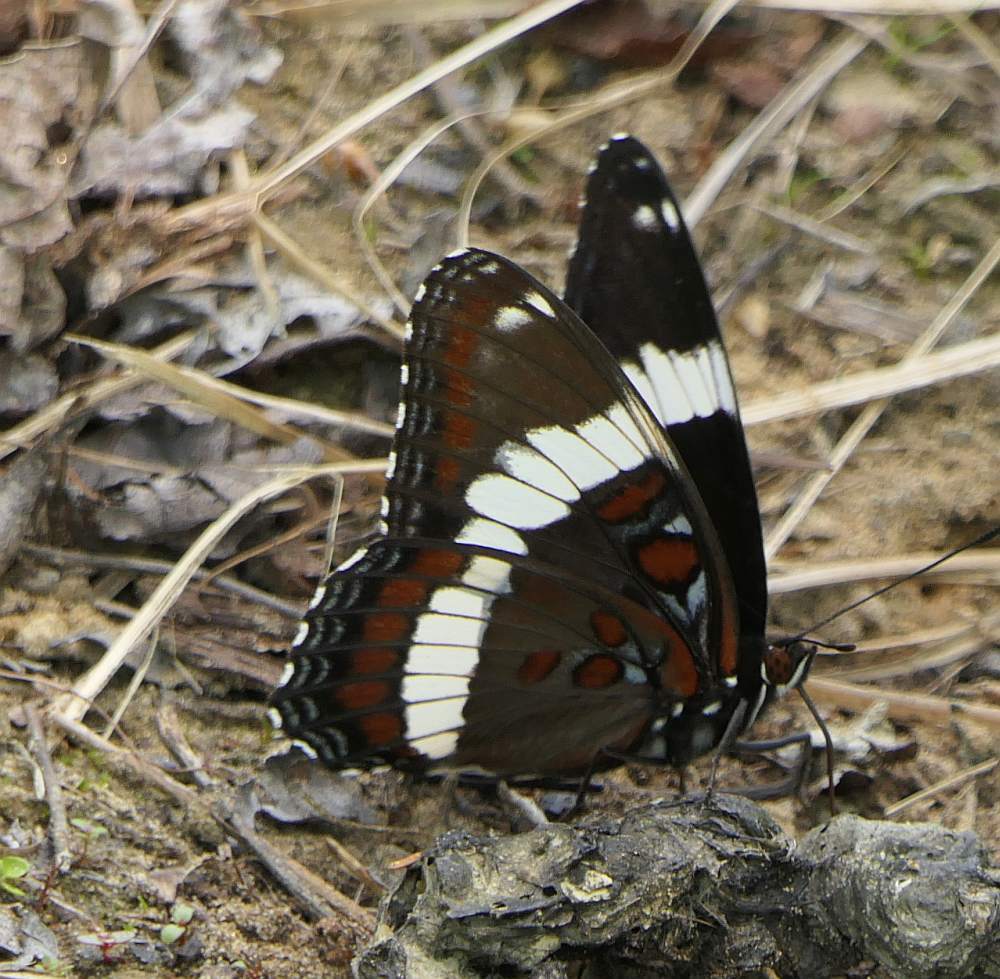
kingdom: Animalia
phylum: Arthropoda
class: Insecta
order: Lepidoptera
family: Nymphalidae
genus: Limenitis
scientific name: Limenitis arthemis
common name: Red-spotted admiral
